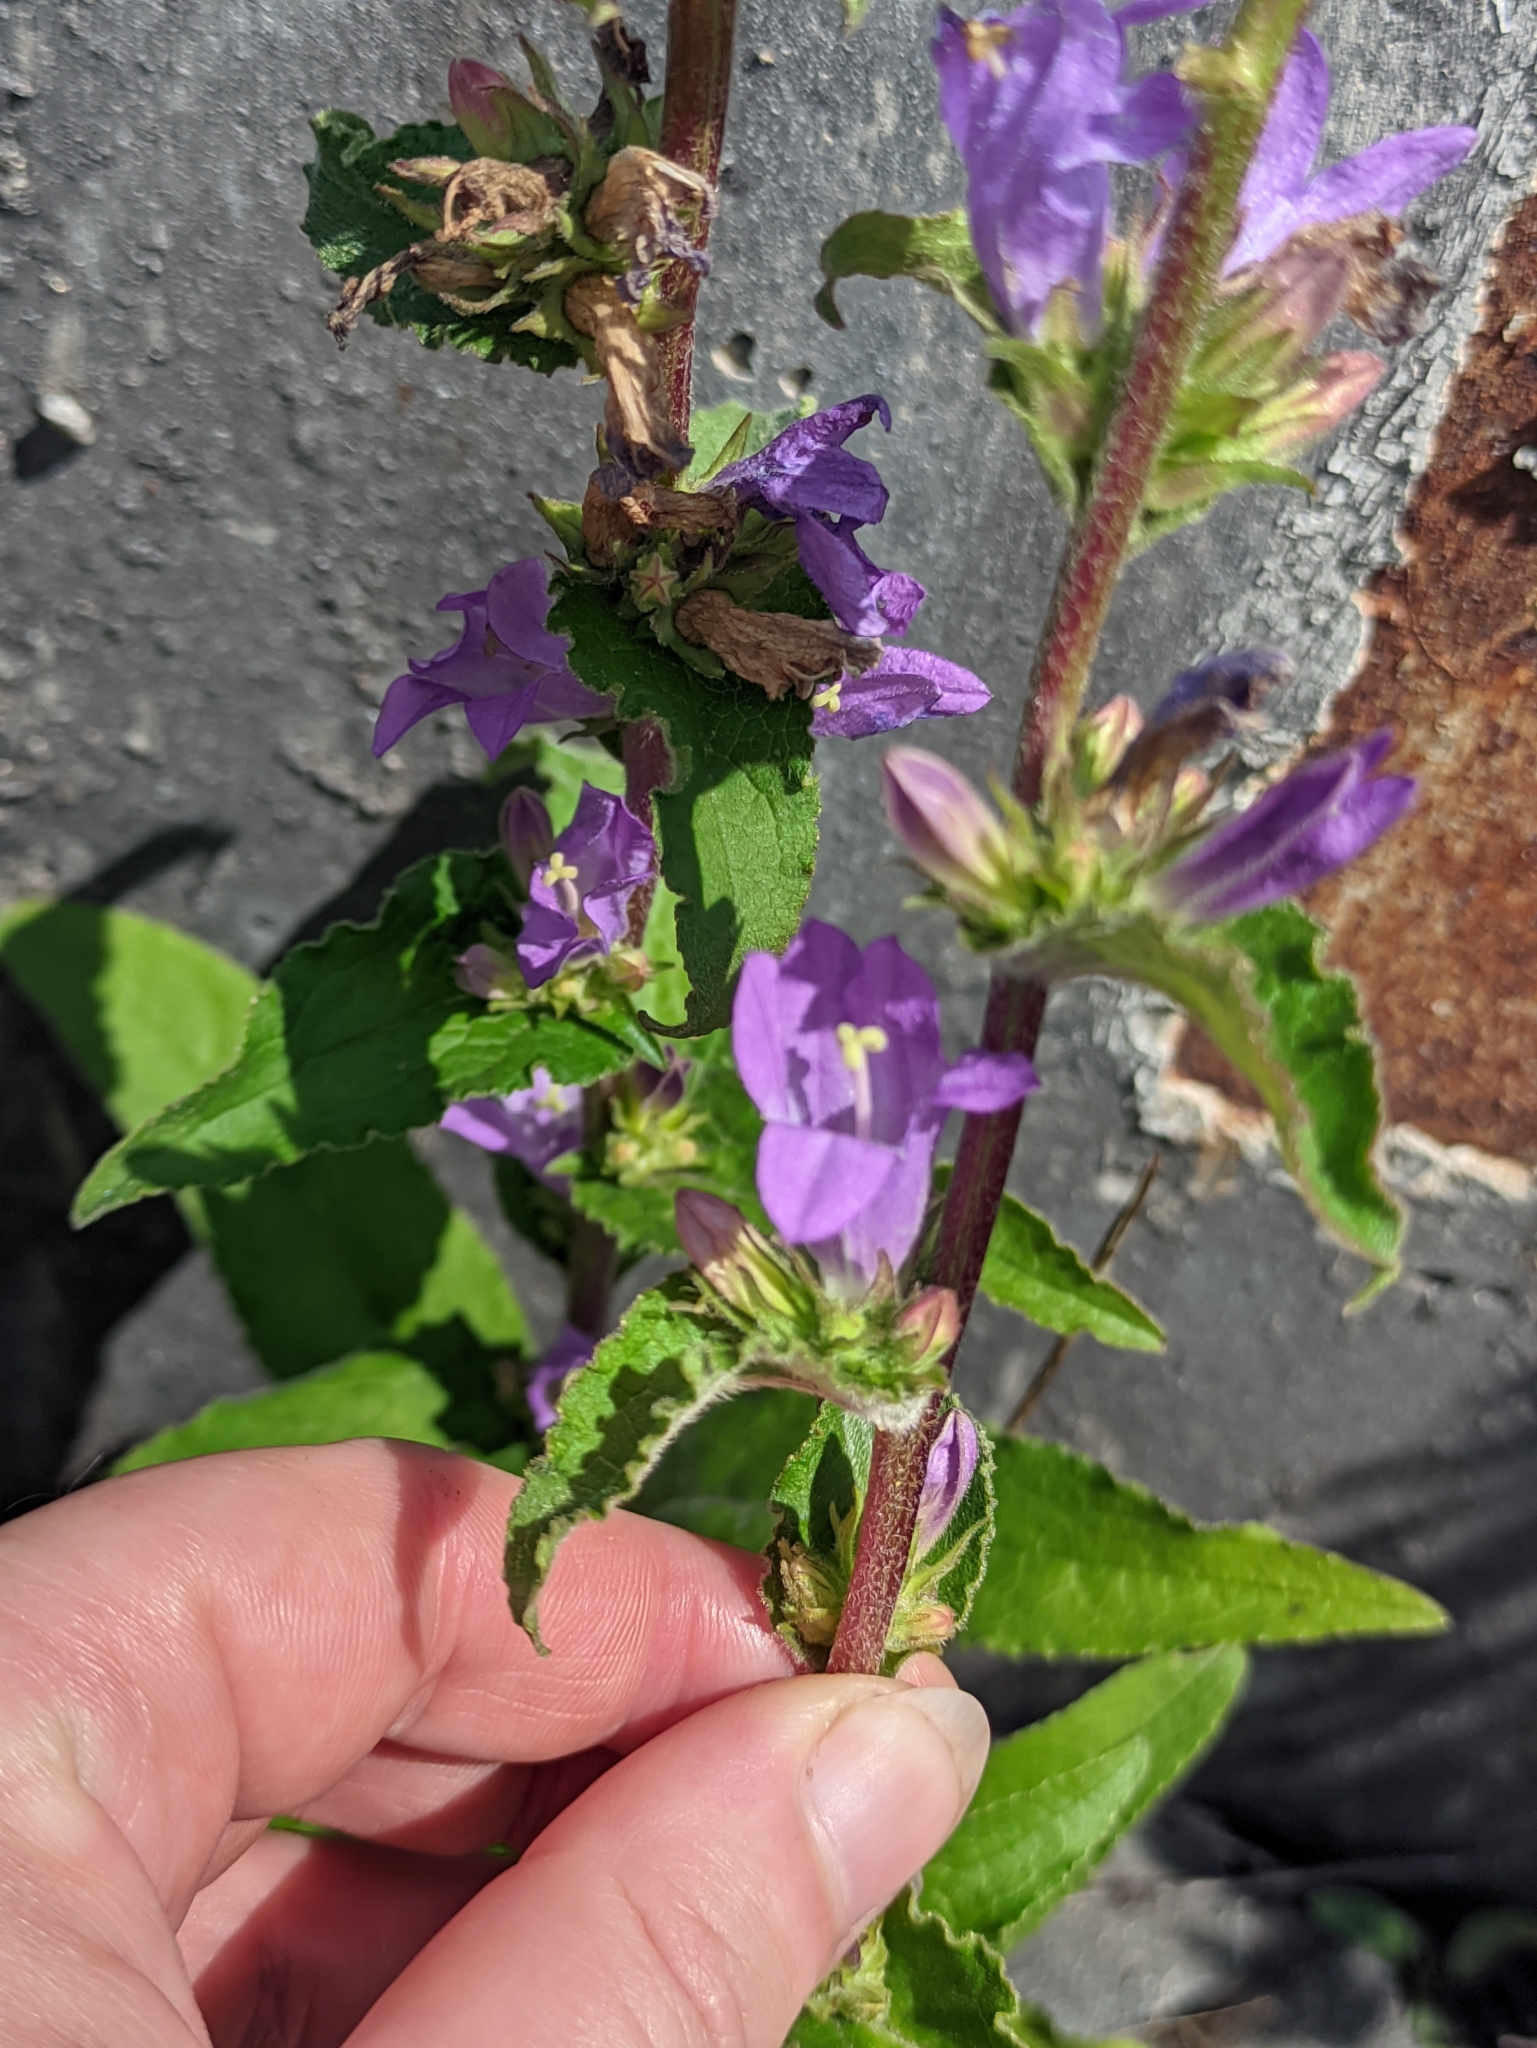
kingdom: Plantae
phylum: Tracheophyta
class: Magnoliopsida
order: Asterales
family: Campanulaceae
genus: Campanula
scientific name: Campanula glomerata
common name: Clustered bellflower
